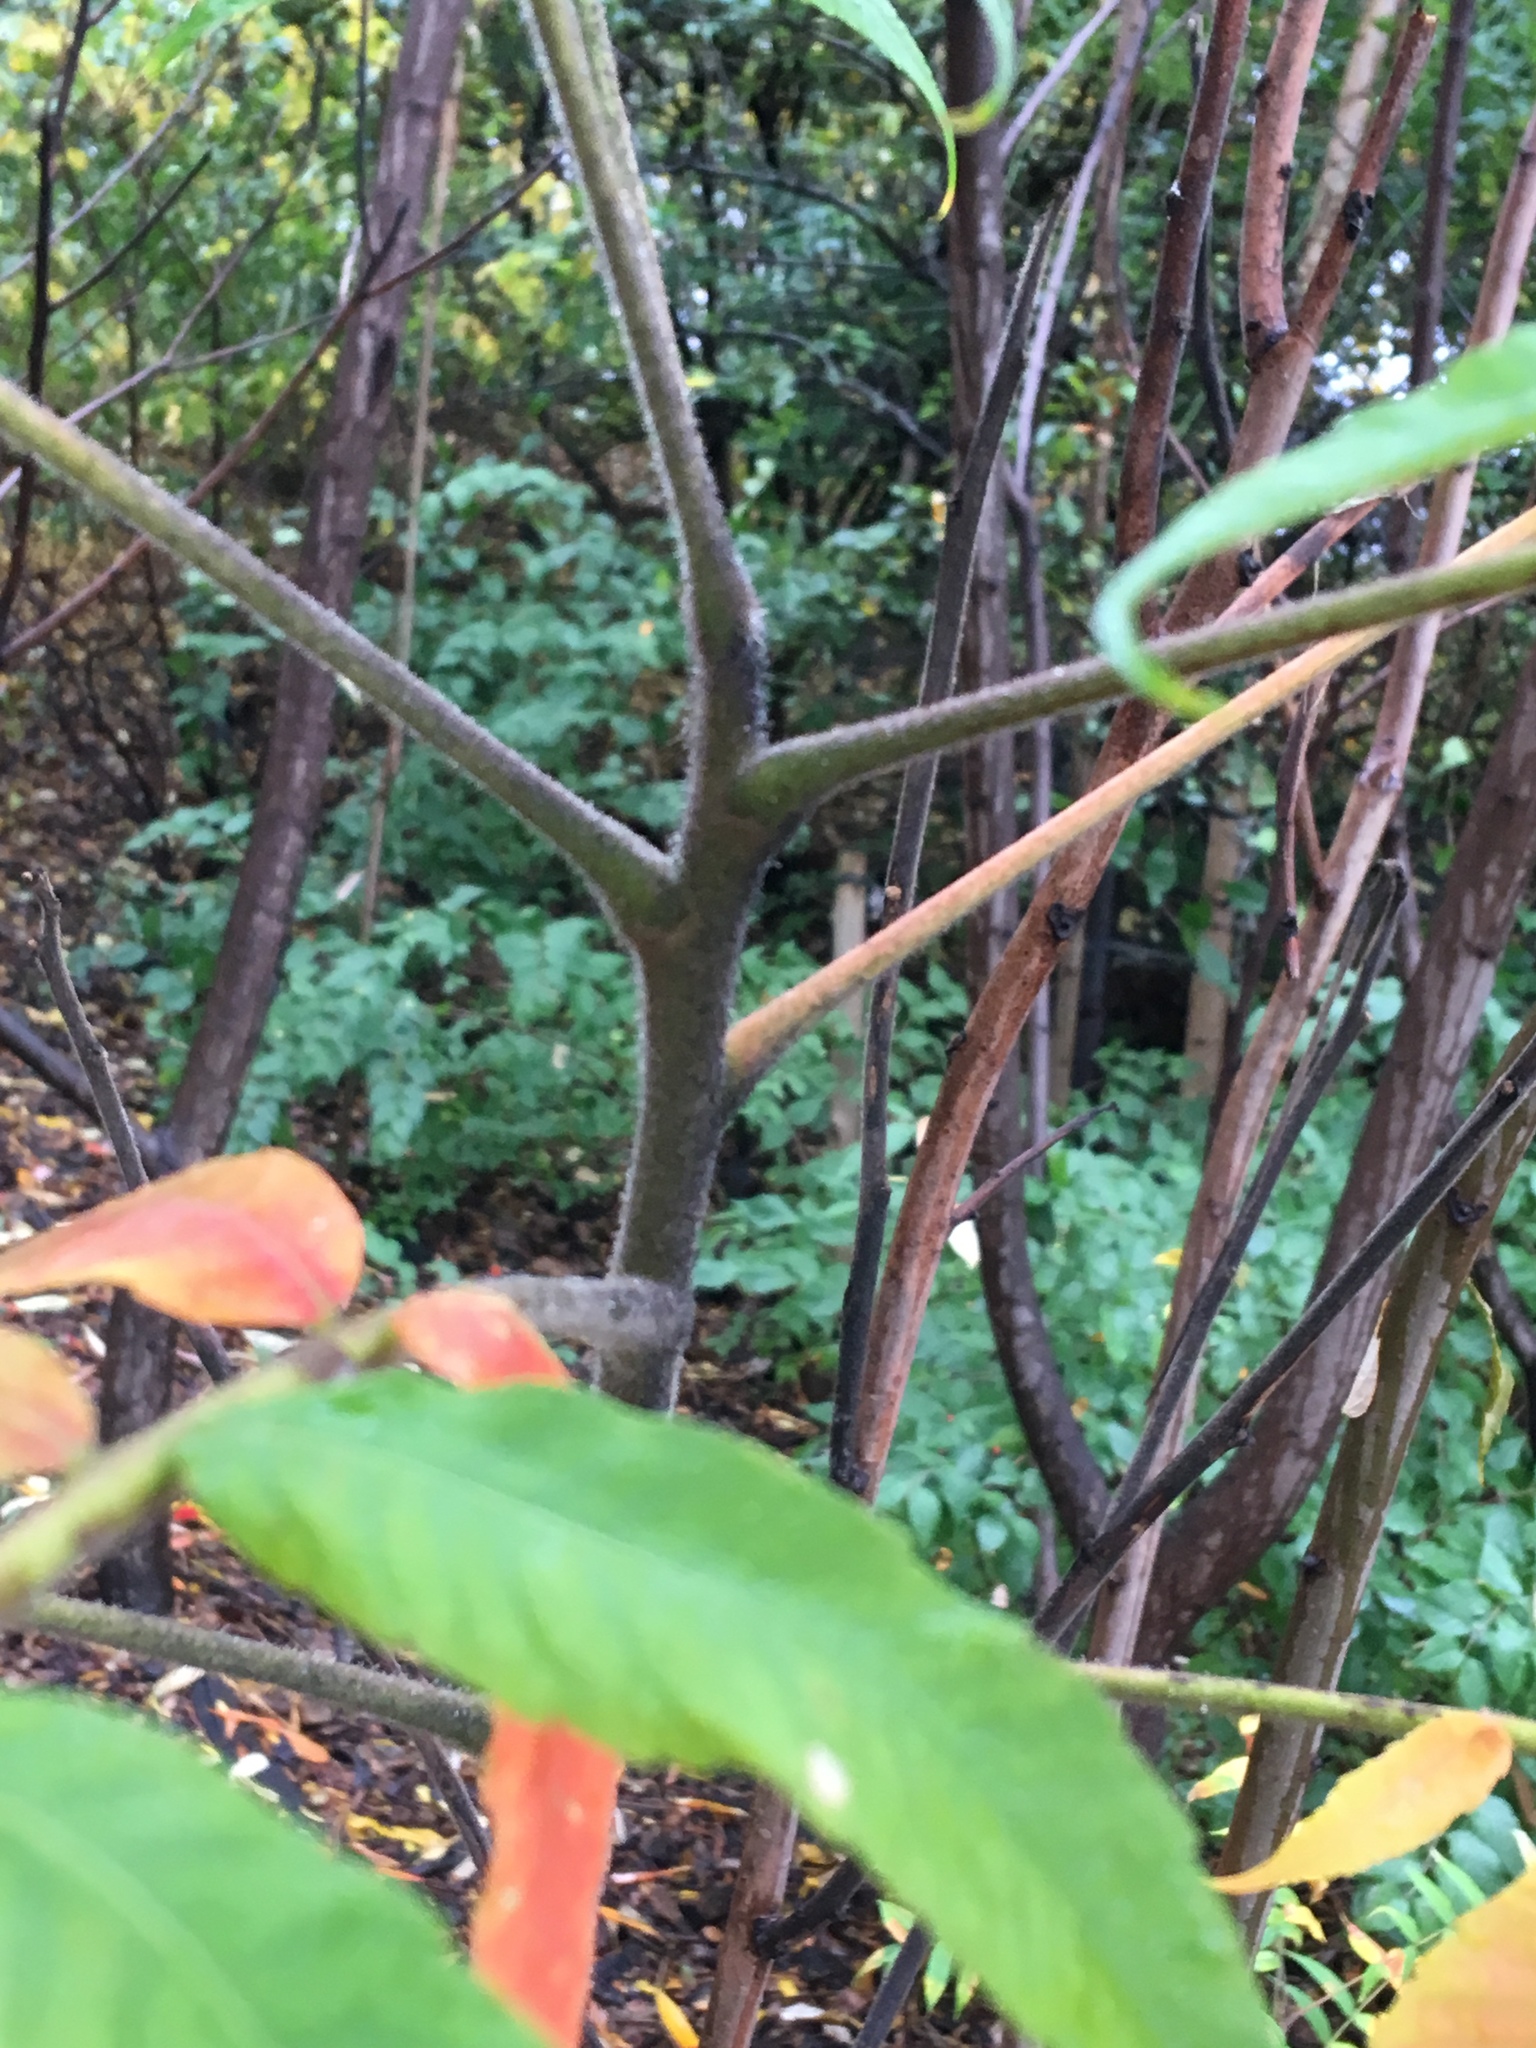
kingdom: Plantae
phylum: Tracheophyta
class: Magnoliopsida
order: Sapindales
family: Anacardiaceae
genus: Rhus
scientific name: Rhus typhina
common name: Staghorn sumac
